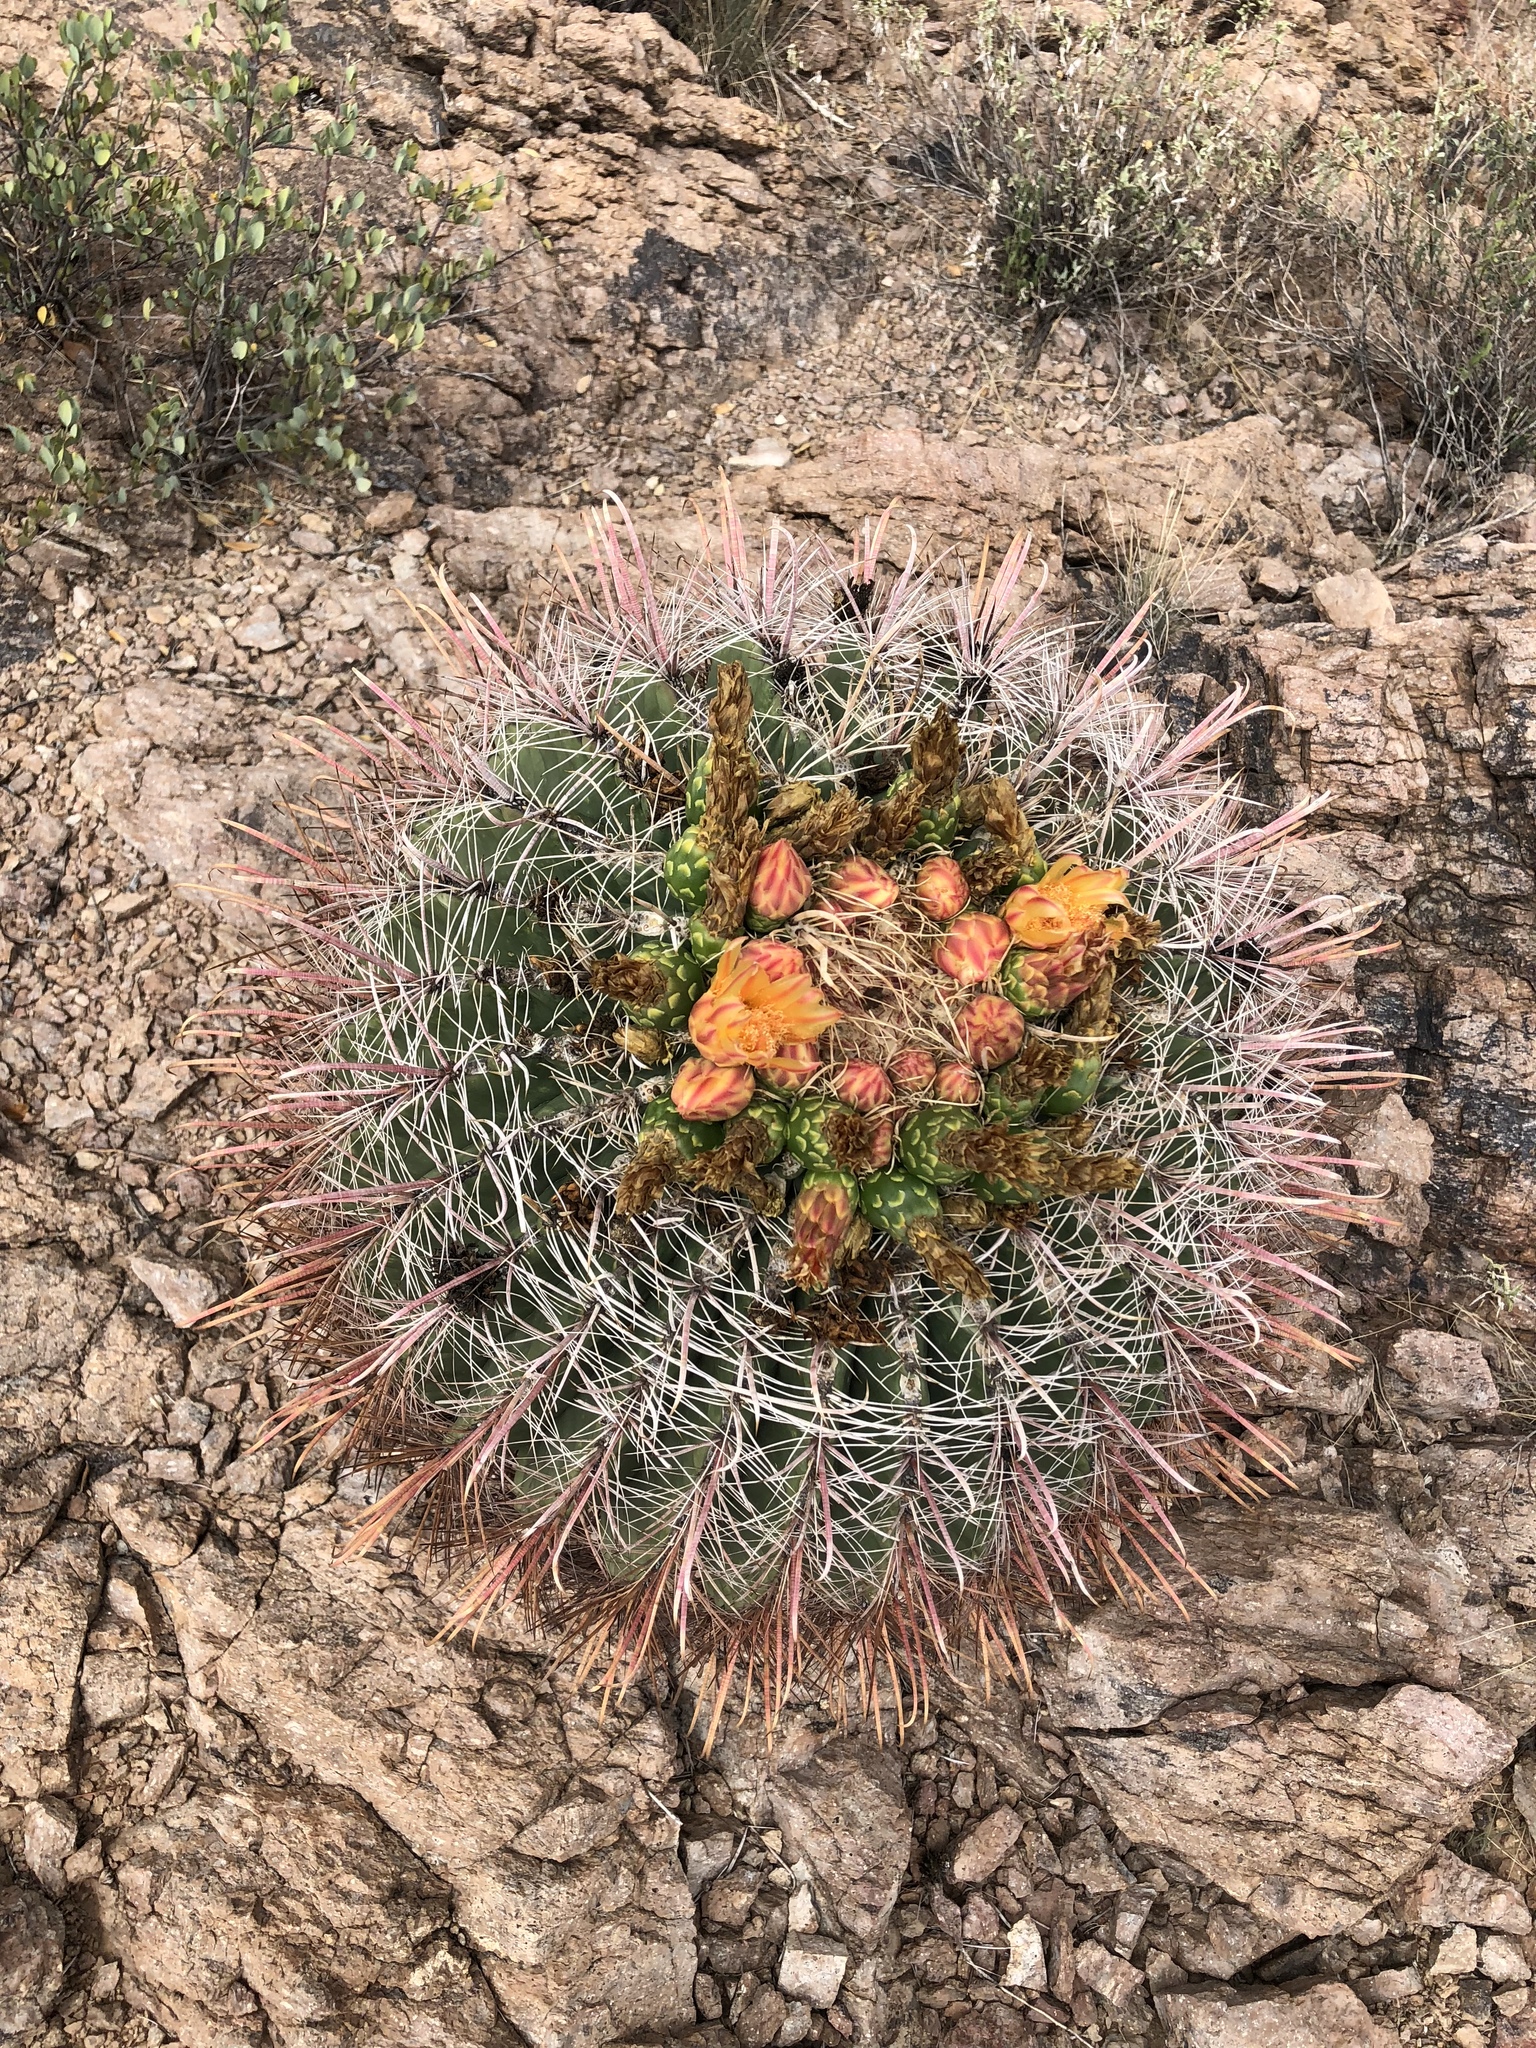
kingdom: Plantae
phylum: Tracheophyta
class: Magnoliopsida
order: Caryophyllales
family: Cactaceae
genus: Ferocactus
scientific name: Ferocactus wislizeni
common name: Candy barrel cactus
